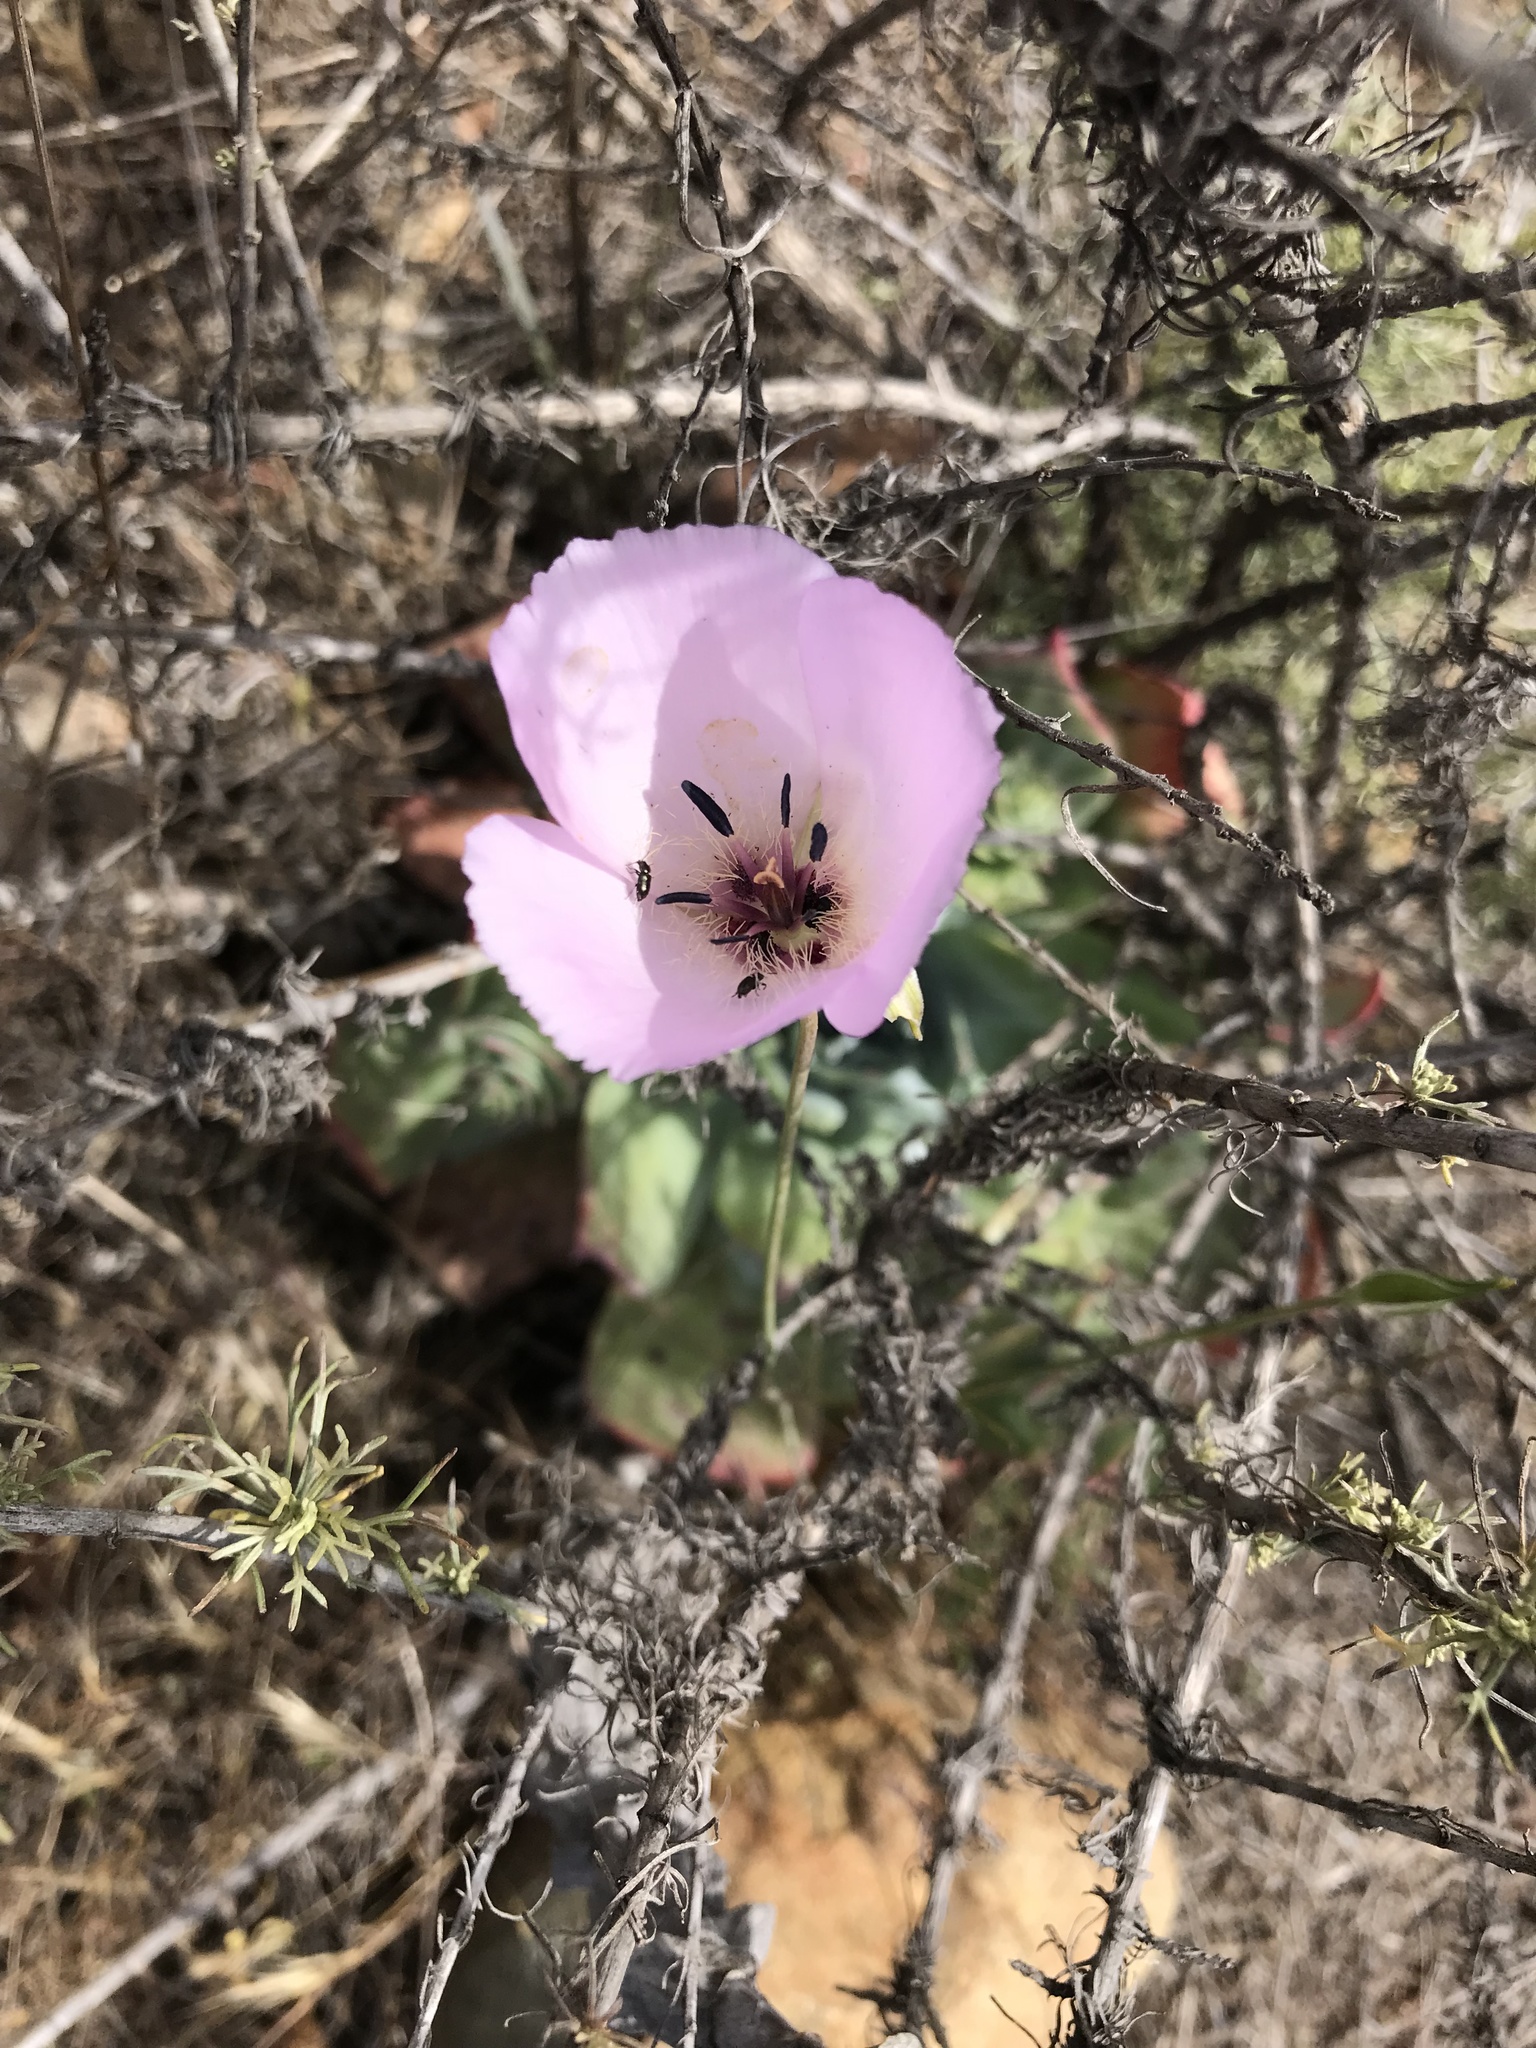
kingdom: Plantae
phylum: Tracheophyta
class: Liliopsida
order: Liliales
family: Liliaceae
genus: Calochortus
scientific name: Calochortus splendens
